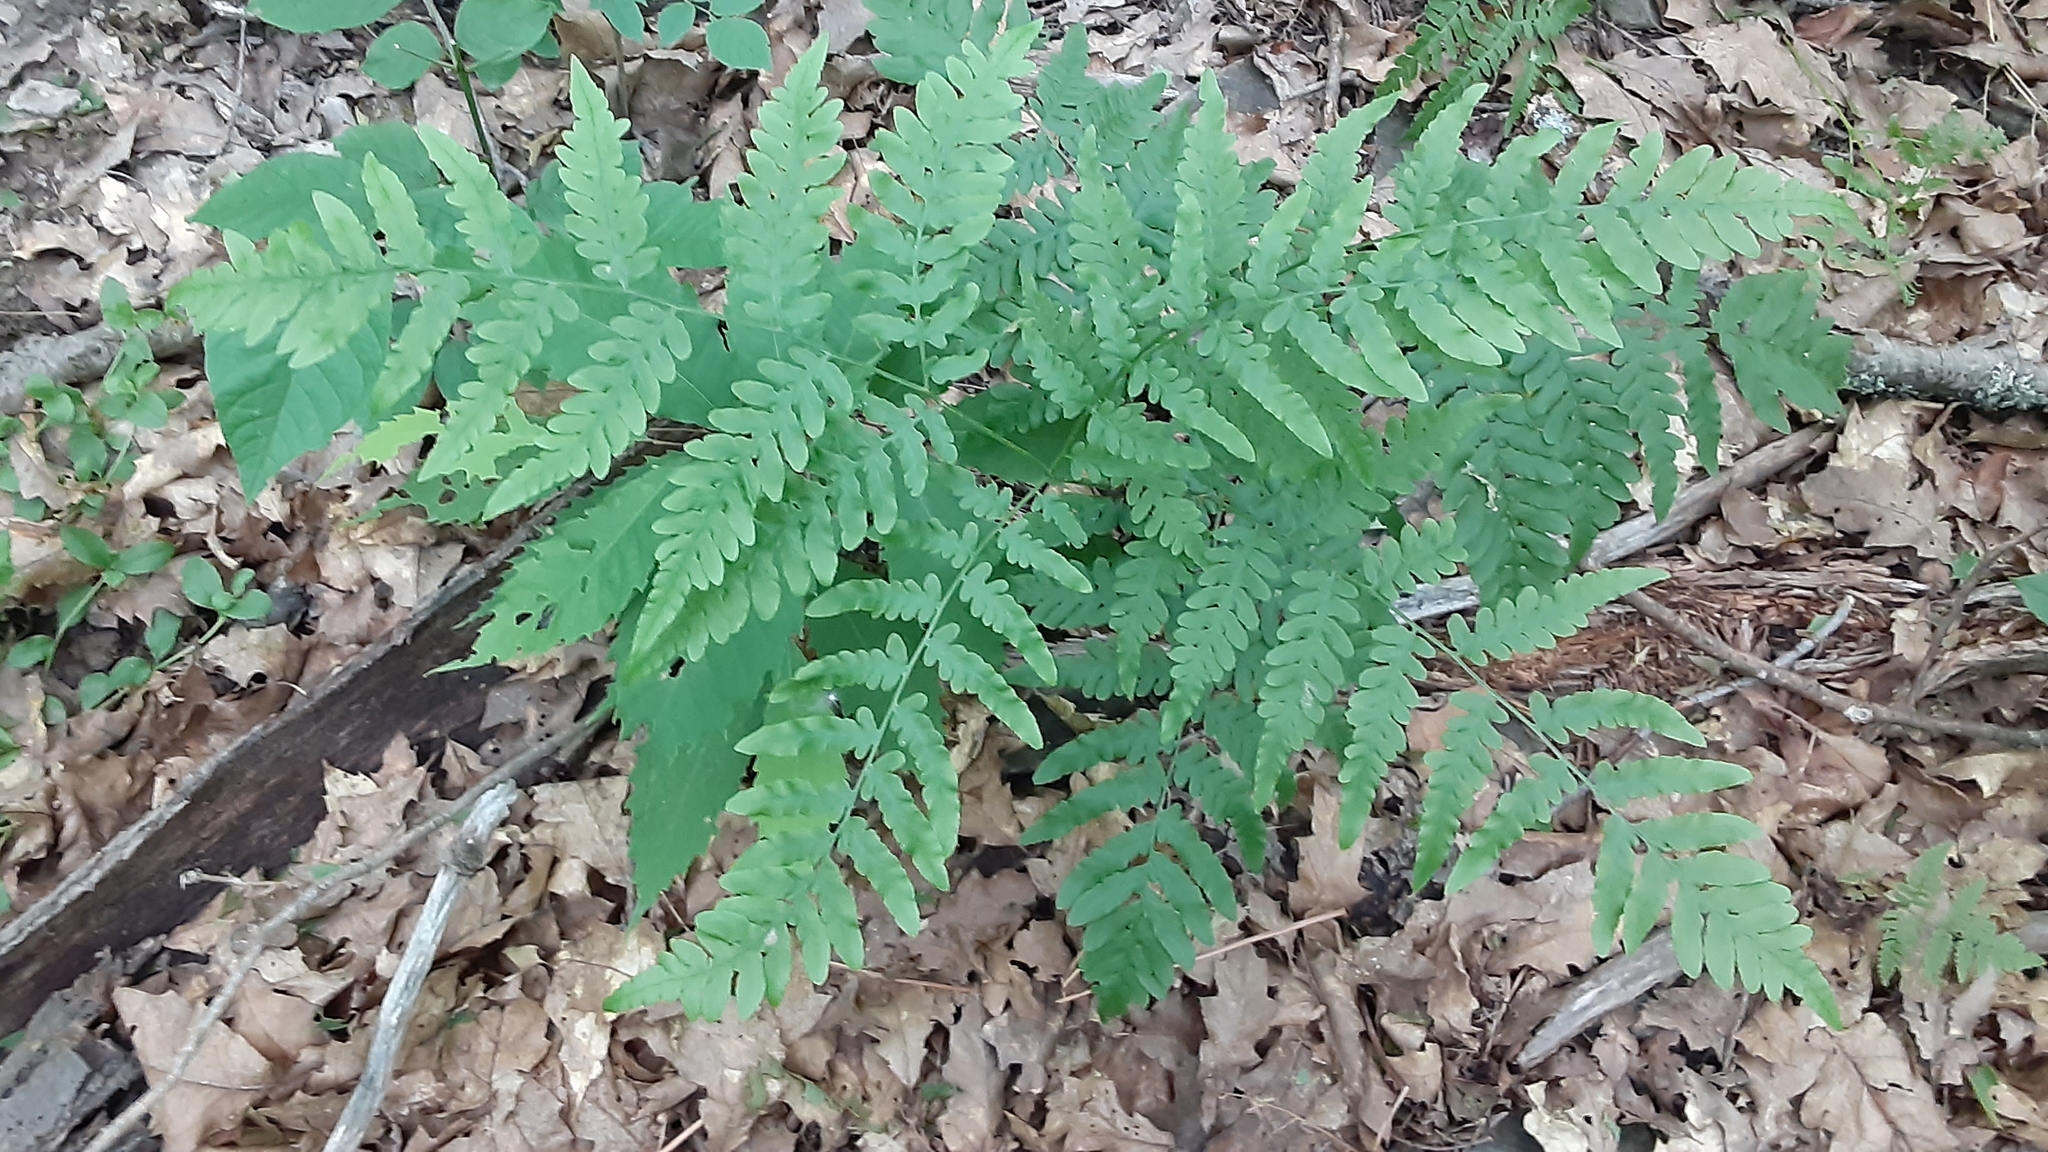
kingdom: Plantae
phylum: Tracheophyta
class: Polypodiopsida
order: Polypodiales
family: Dennstaedtiaceae
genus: Pteridium
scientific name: Pteridium aquilinum
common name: Bracken
